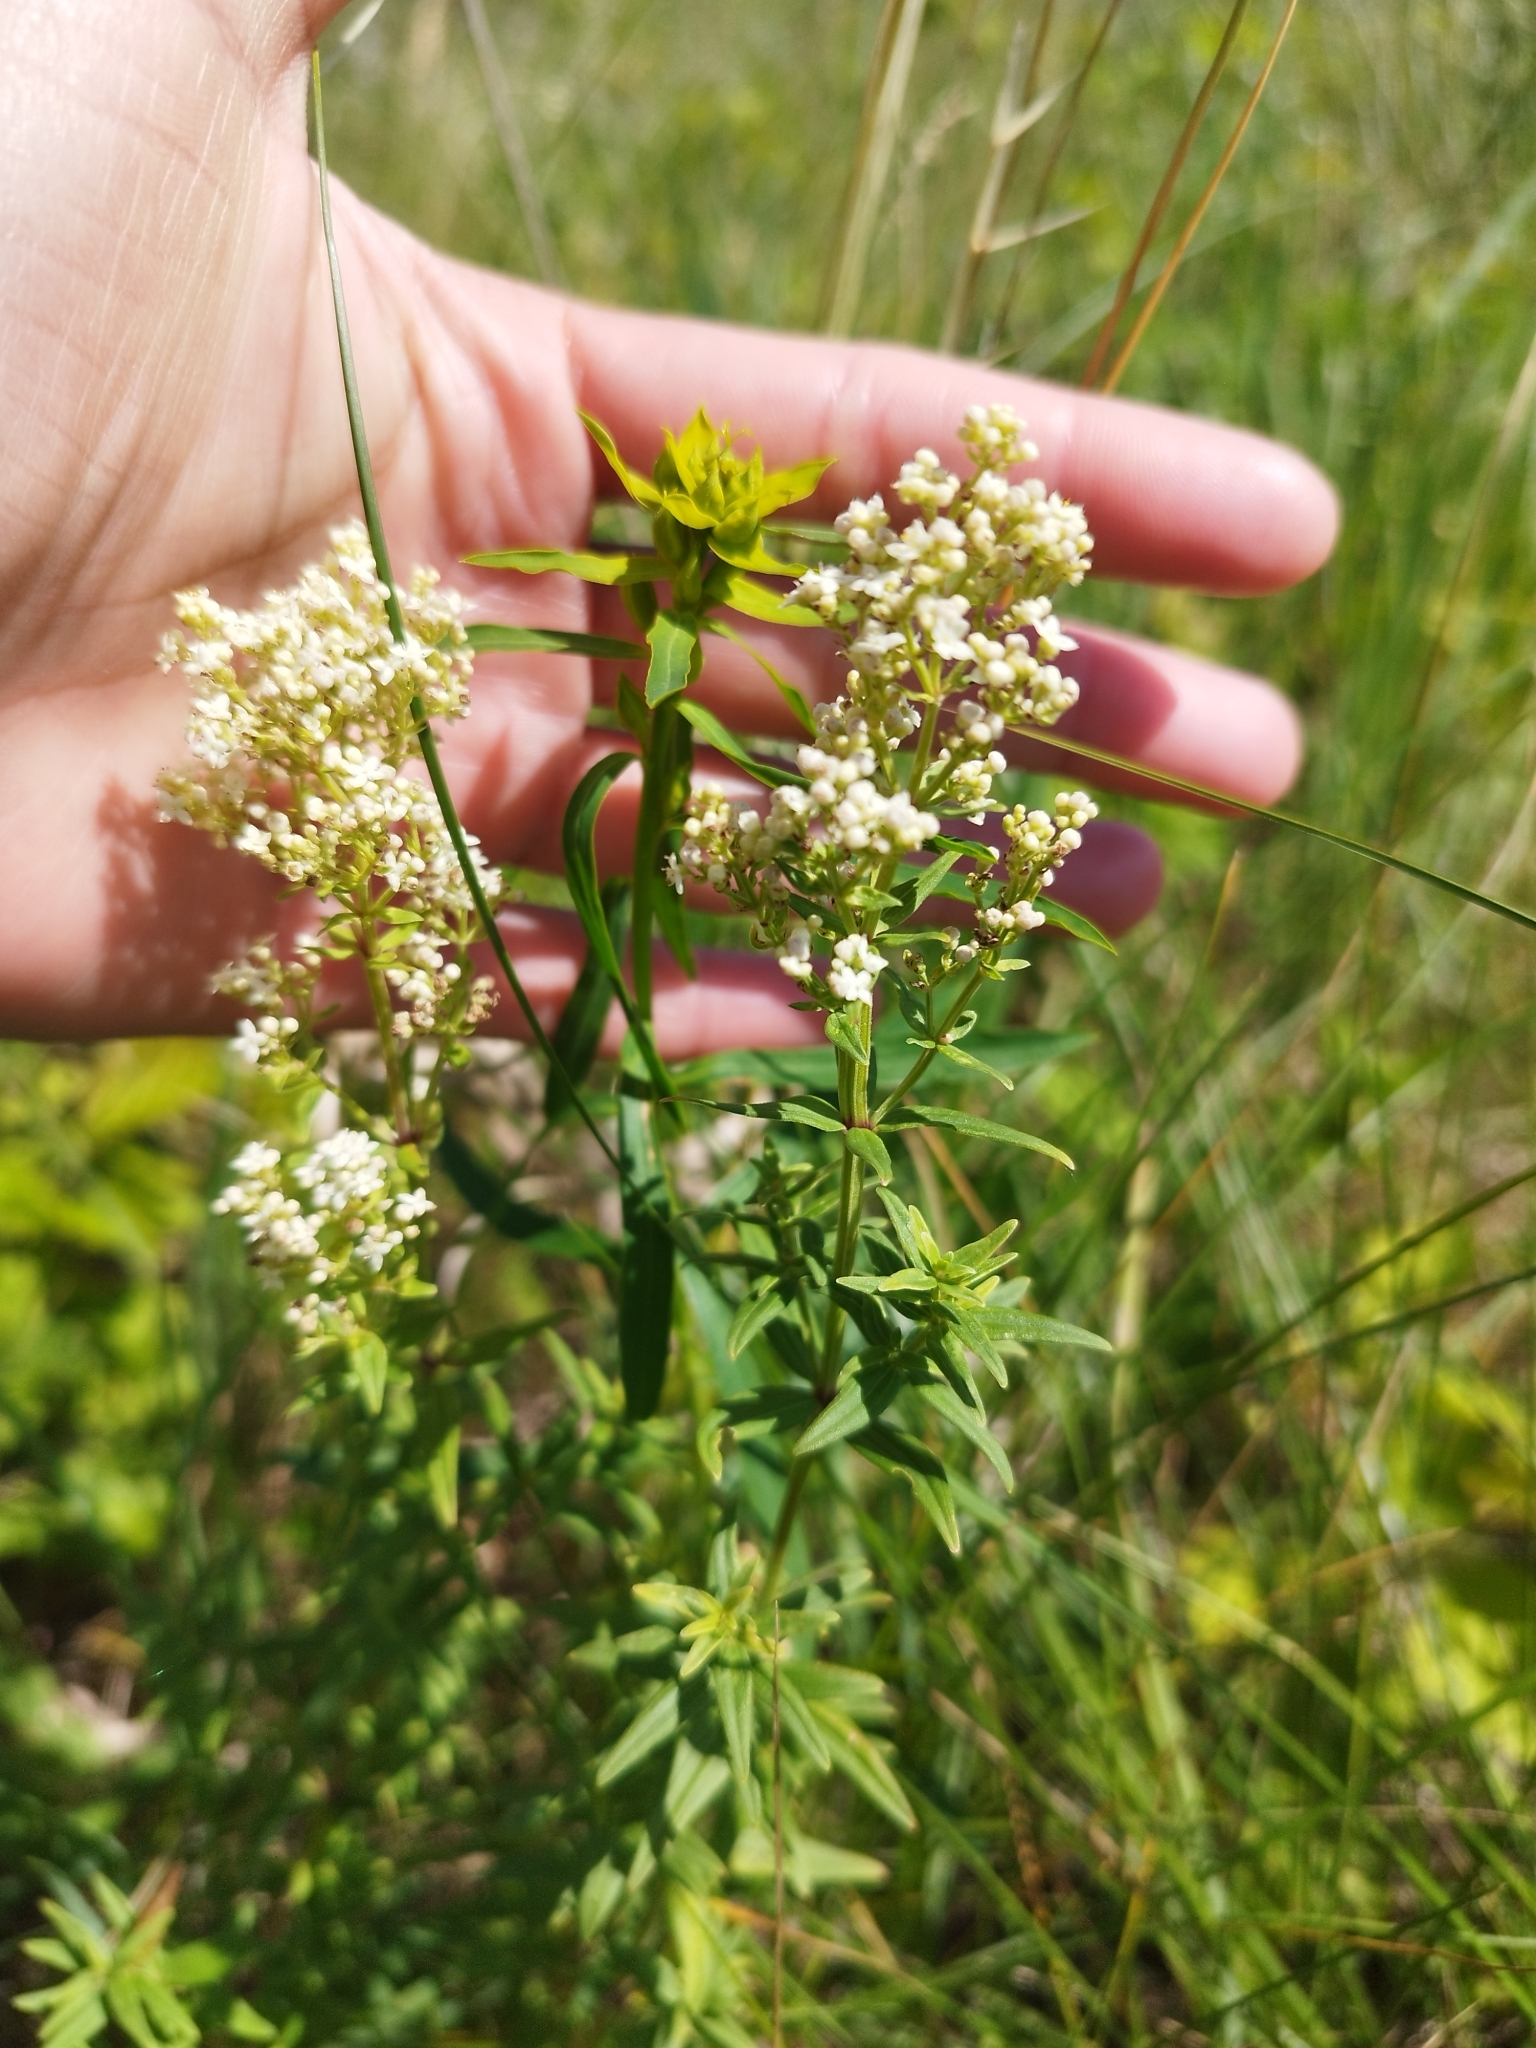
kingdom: Plantae
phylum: Tracheophyta
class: Magnoliopsida
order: Gentianales
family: Rubiaceae
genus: Galium
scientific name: Galium boreale
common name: Northern bedstraw
